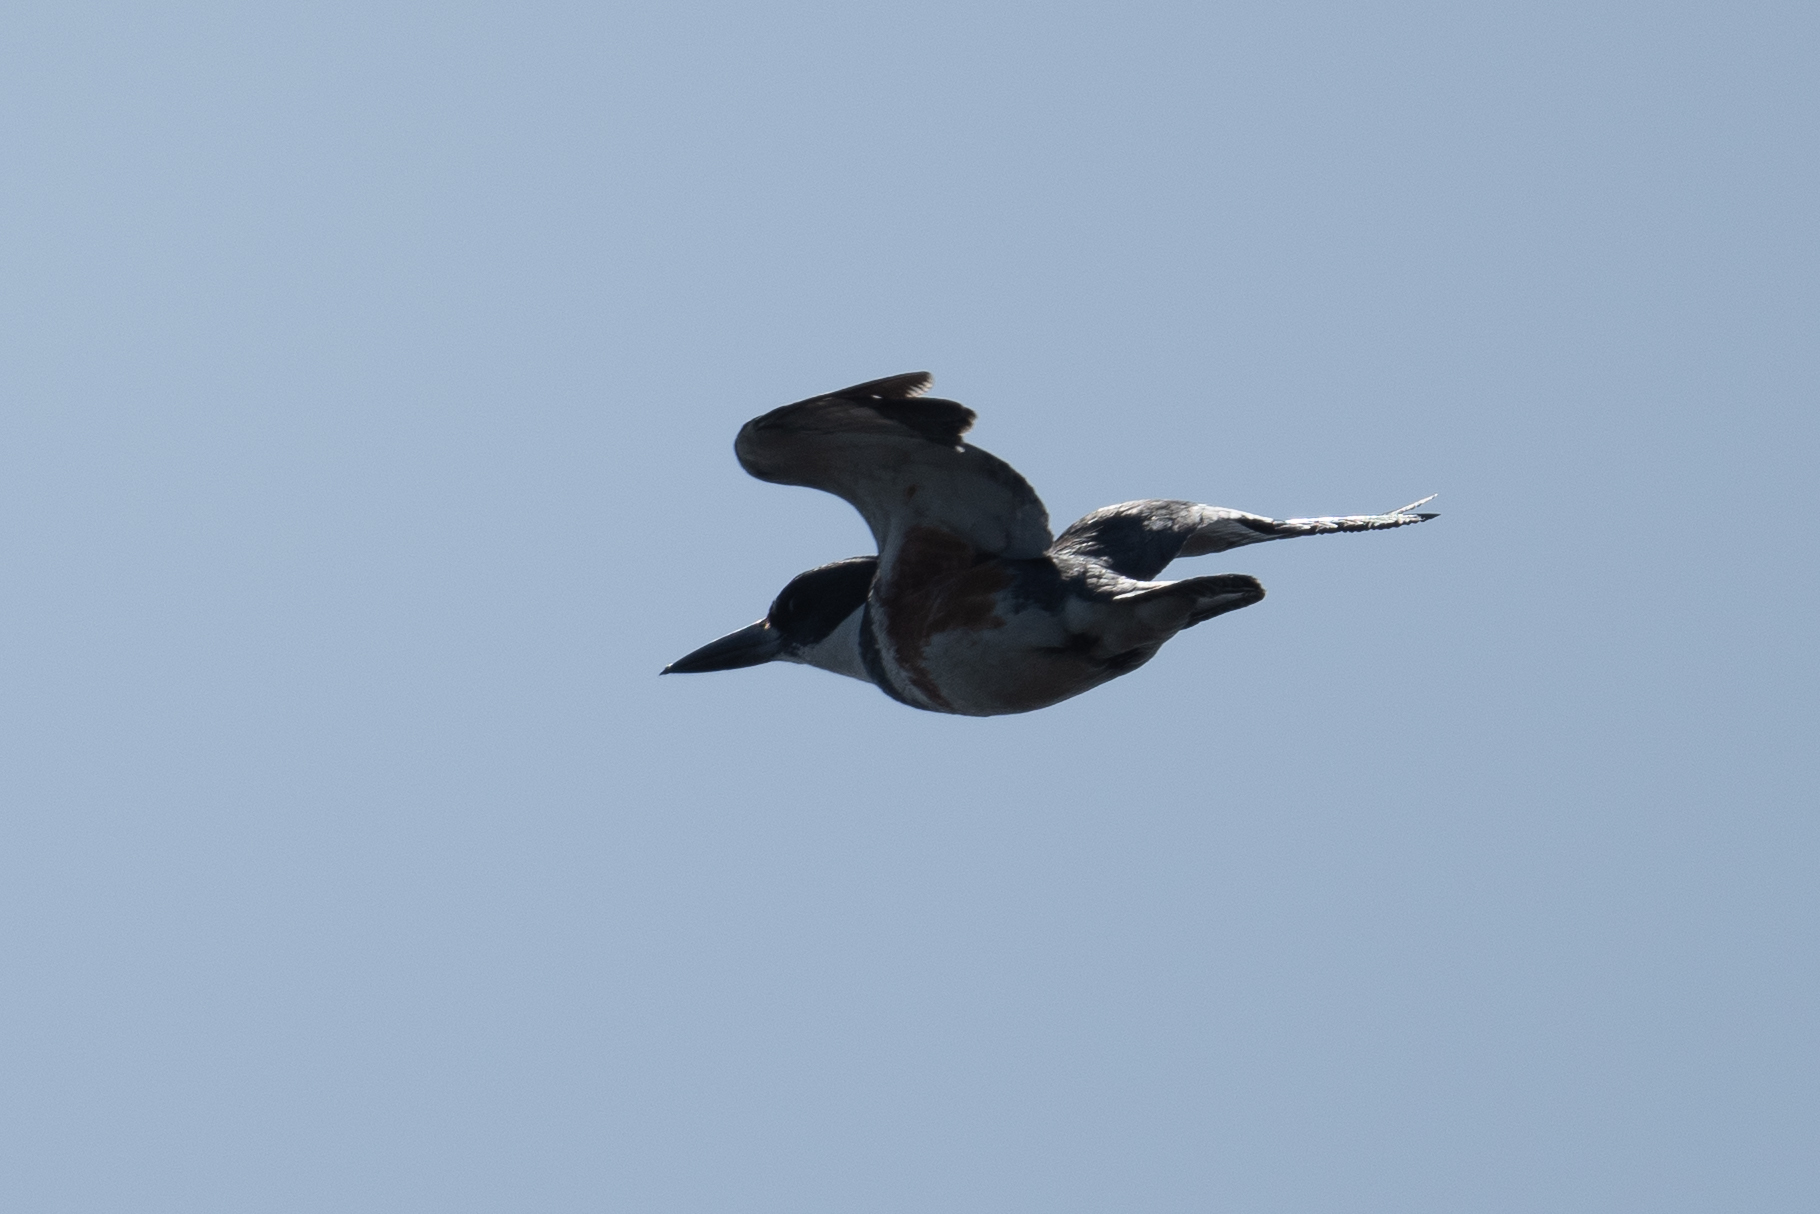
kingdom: Animalia
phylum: Chordata
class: Aves
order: Coraciiformes
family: Alcedinidae
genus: Megaceryle
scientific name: Megaceryle alcyon
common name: Belted kingfisher
